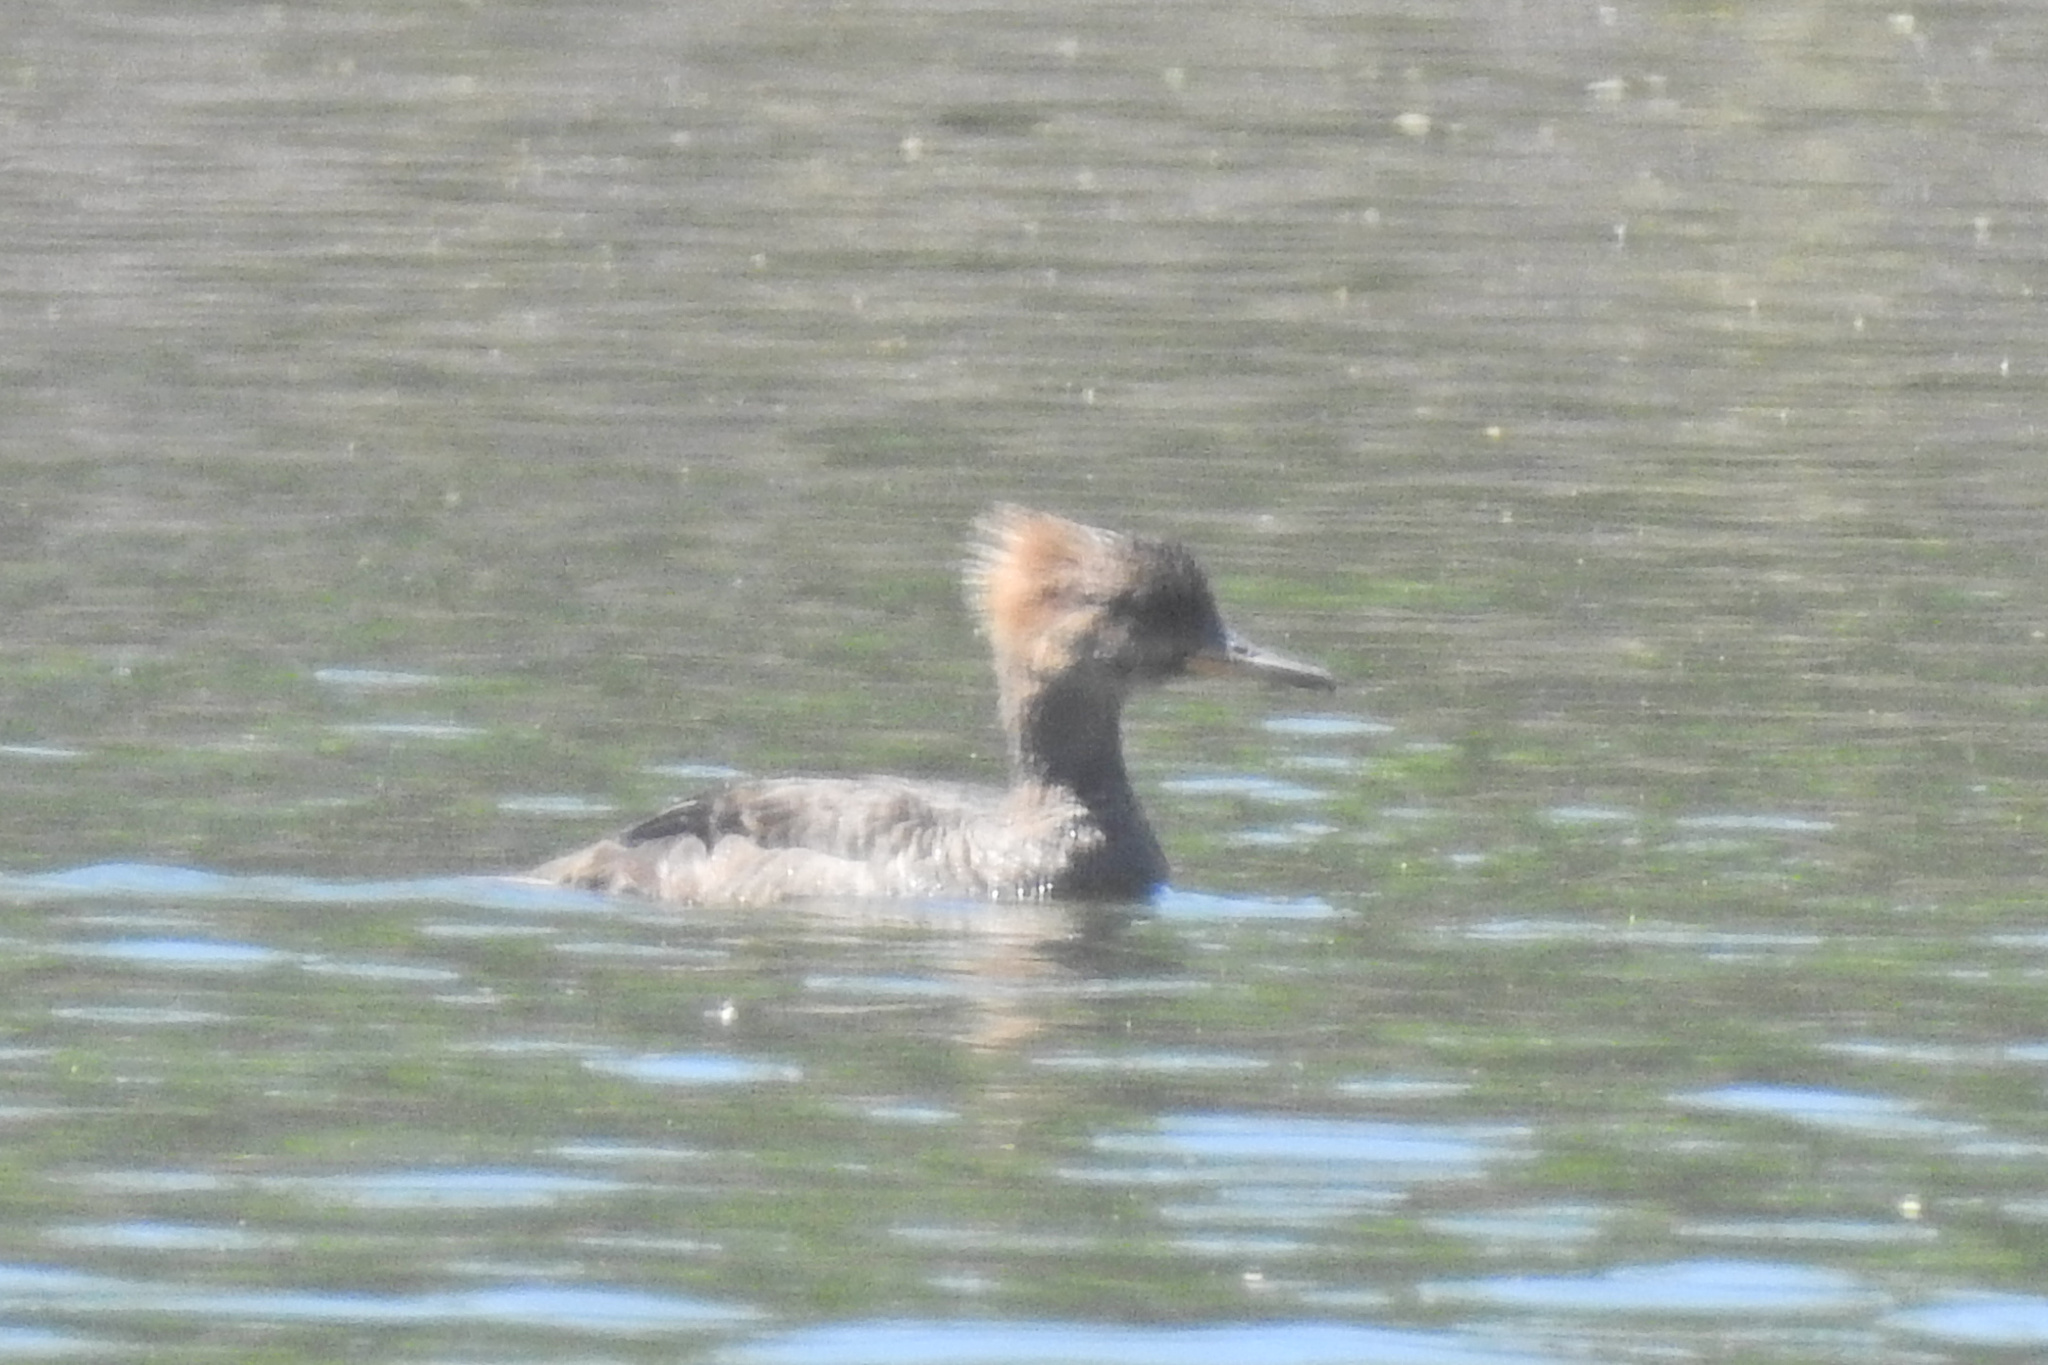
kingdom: Animalia
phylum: Chordata
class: Aves
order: Anseriformes
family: Anatidae
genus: Lophodytes
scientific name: Lophodytes cucullatus
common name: Hooded merganser
